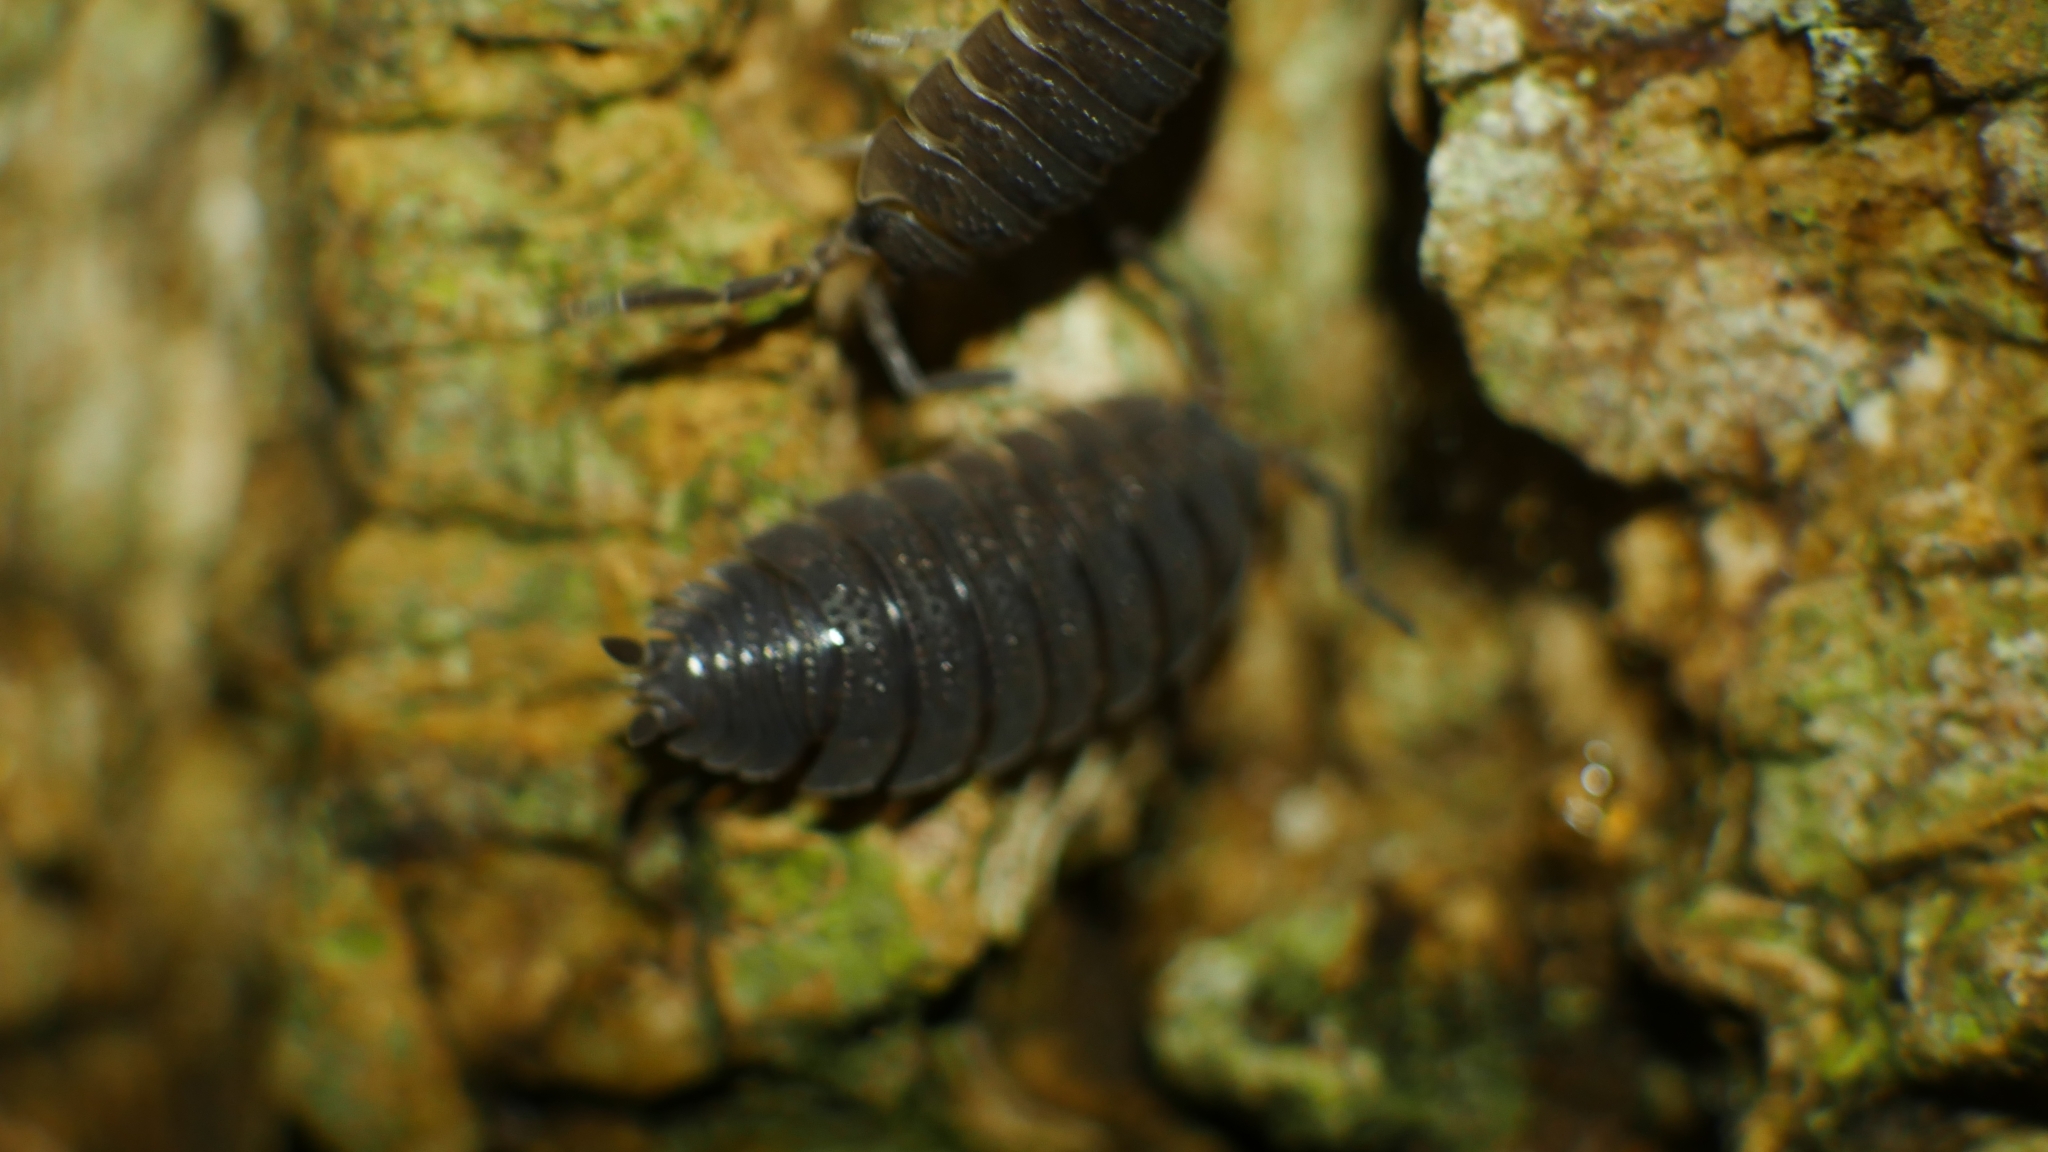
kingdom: Animalia
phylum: Arthropoda
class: Malacostraca
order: Isopoda
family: Porcellionidae
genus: Porcellio
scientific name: Porcellio scaber
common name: Common rough woodlouse
